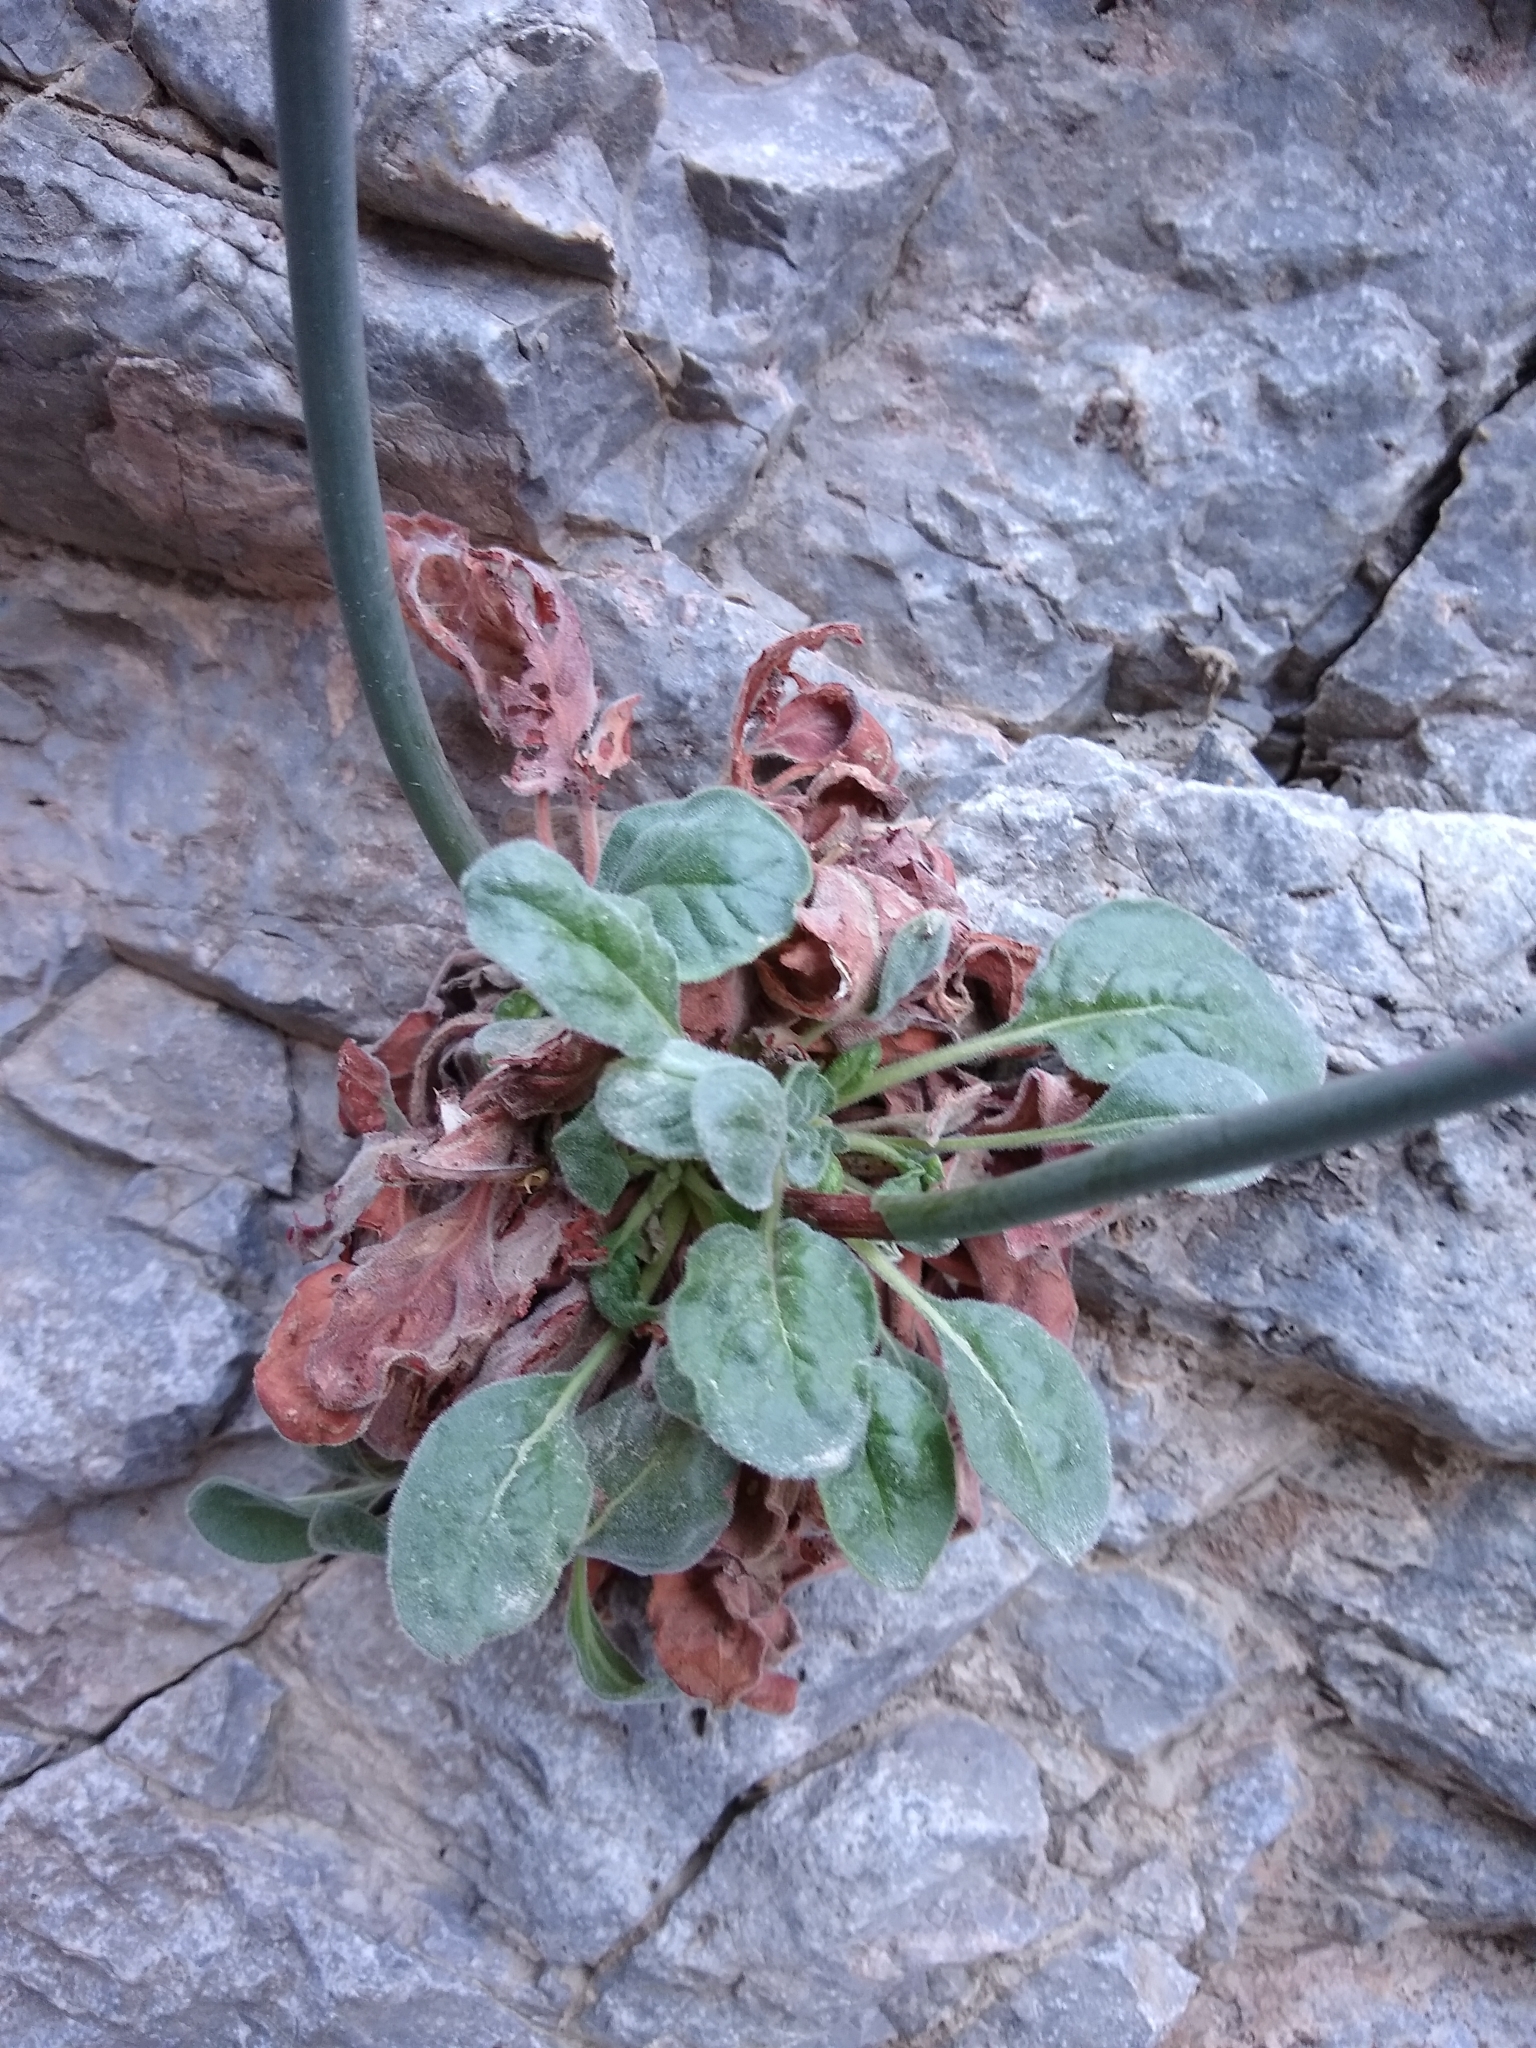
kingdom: Plantae
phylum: Tracheophyta
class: Magnoliopsida
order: Caryophyllales
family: Polygonaceae
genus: Eriogonum
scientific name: Eriogonum intrafractum
